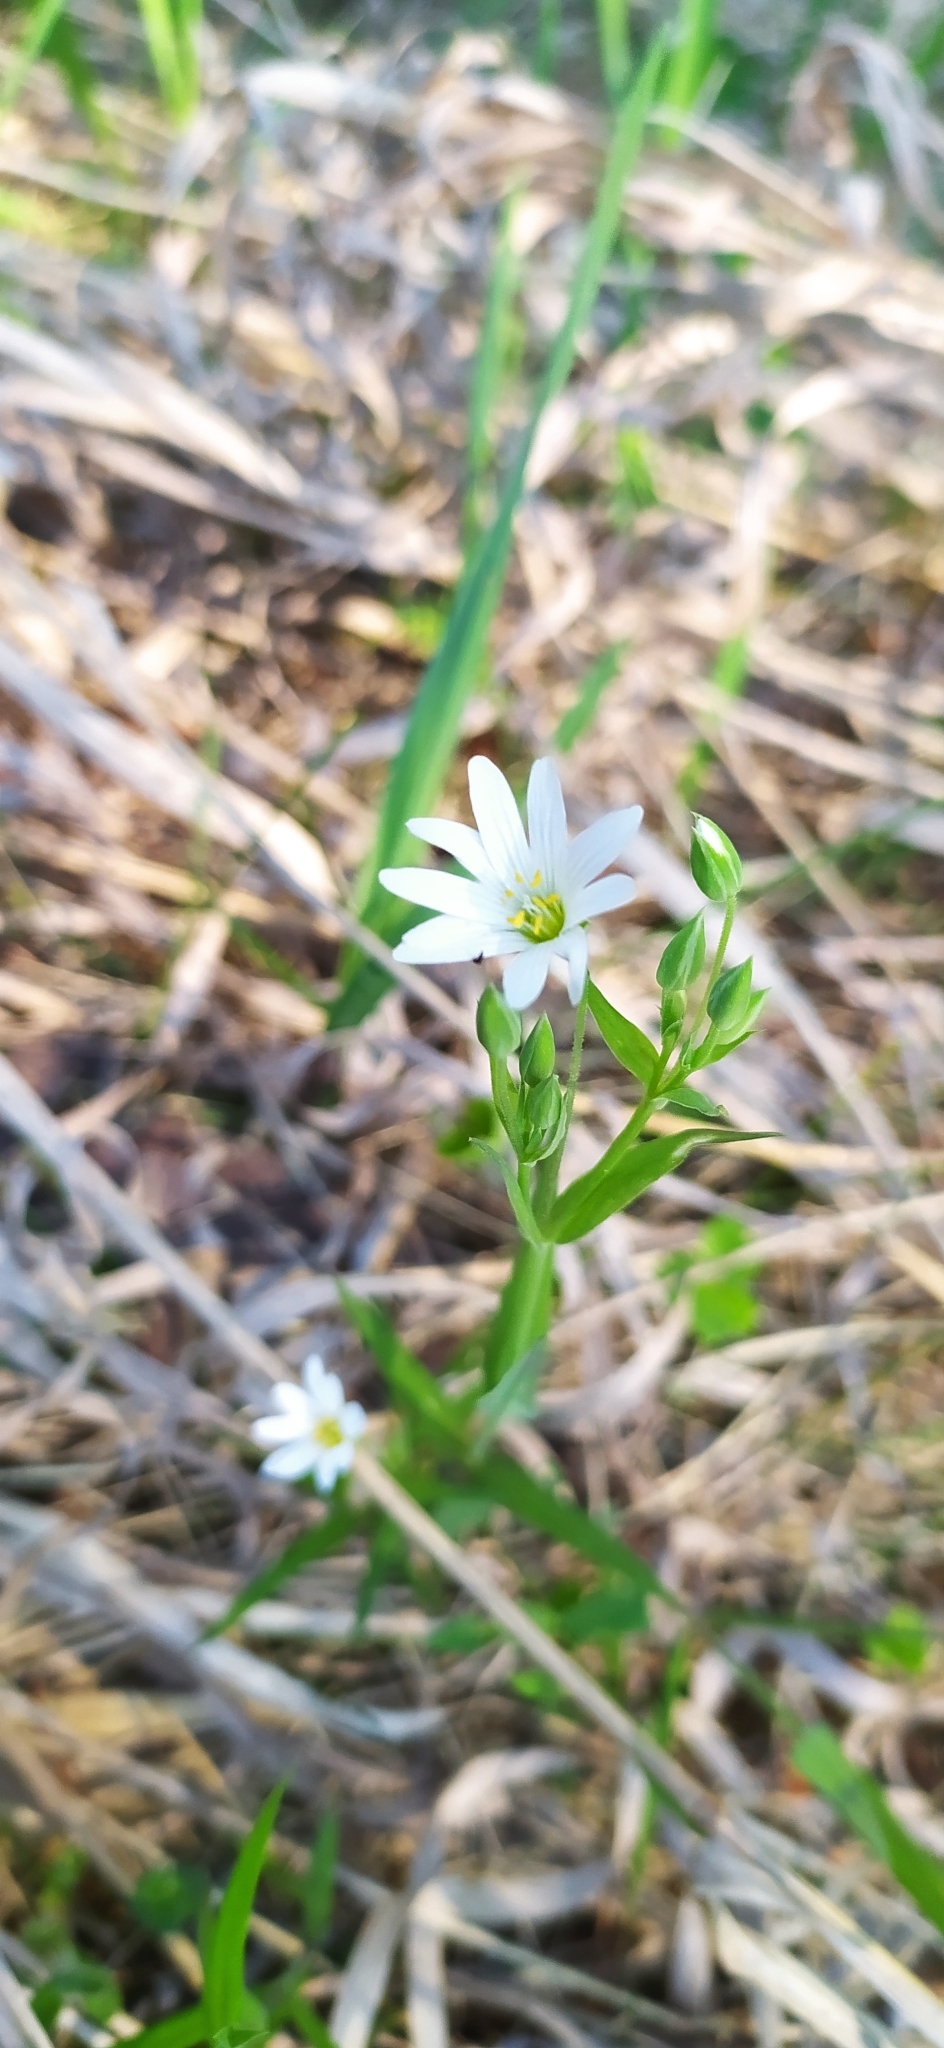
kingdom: Plantae
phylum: Tracheophyta
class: Magnoliopsida
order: Caryophyllales
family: Caryophyllaceae
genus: Rabelera
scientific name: Rabelera holostea
